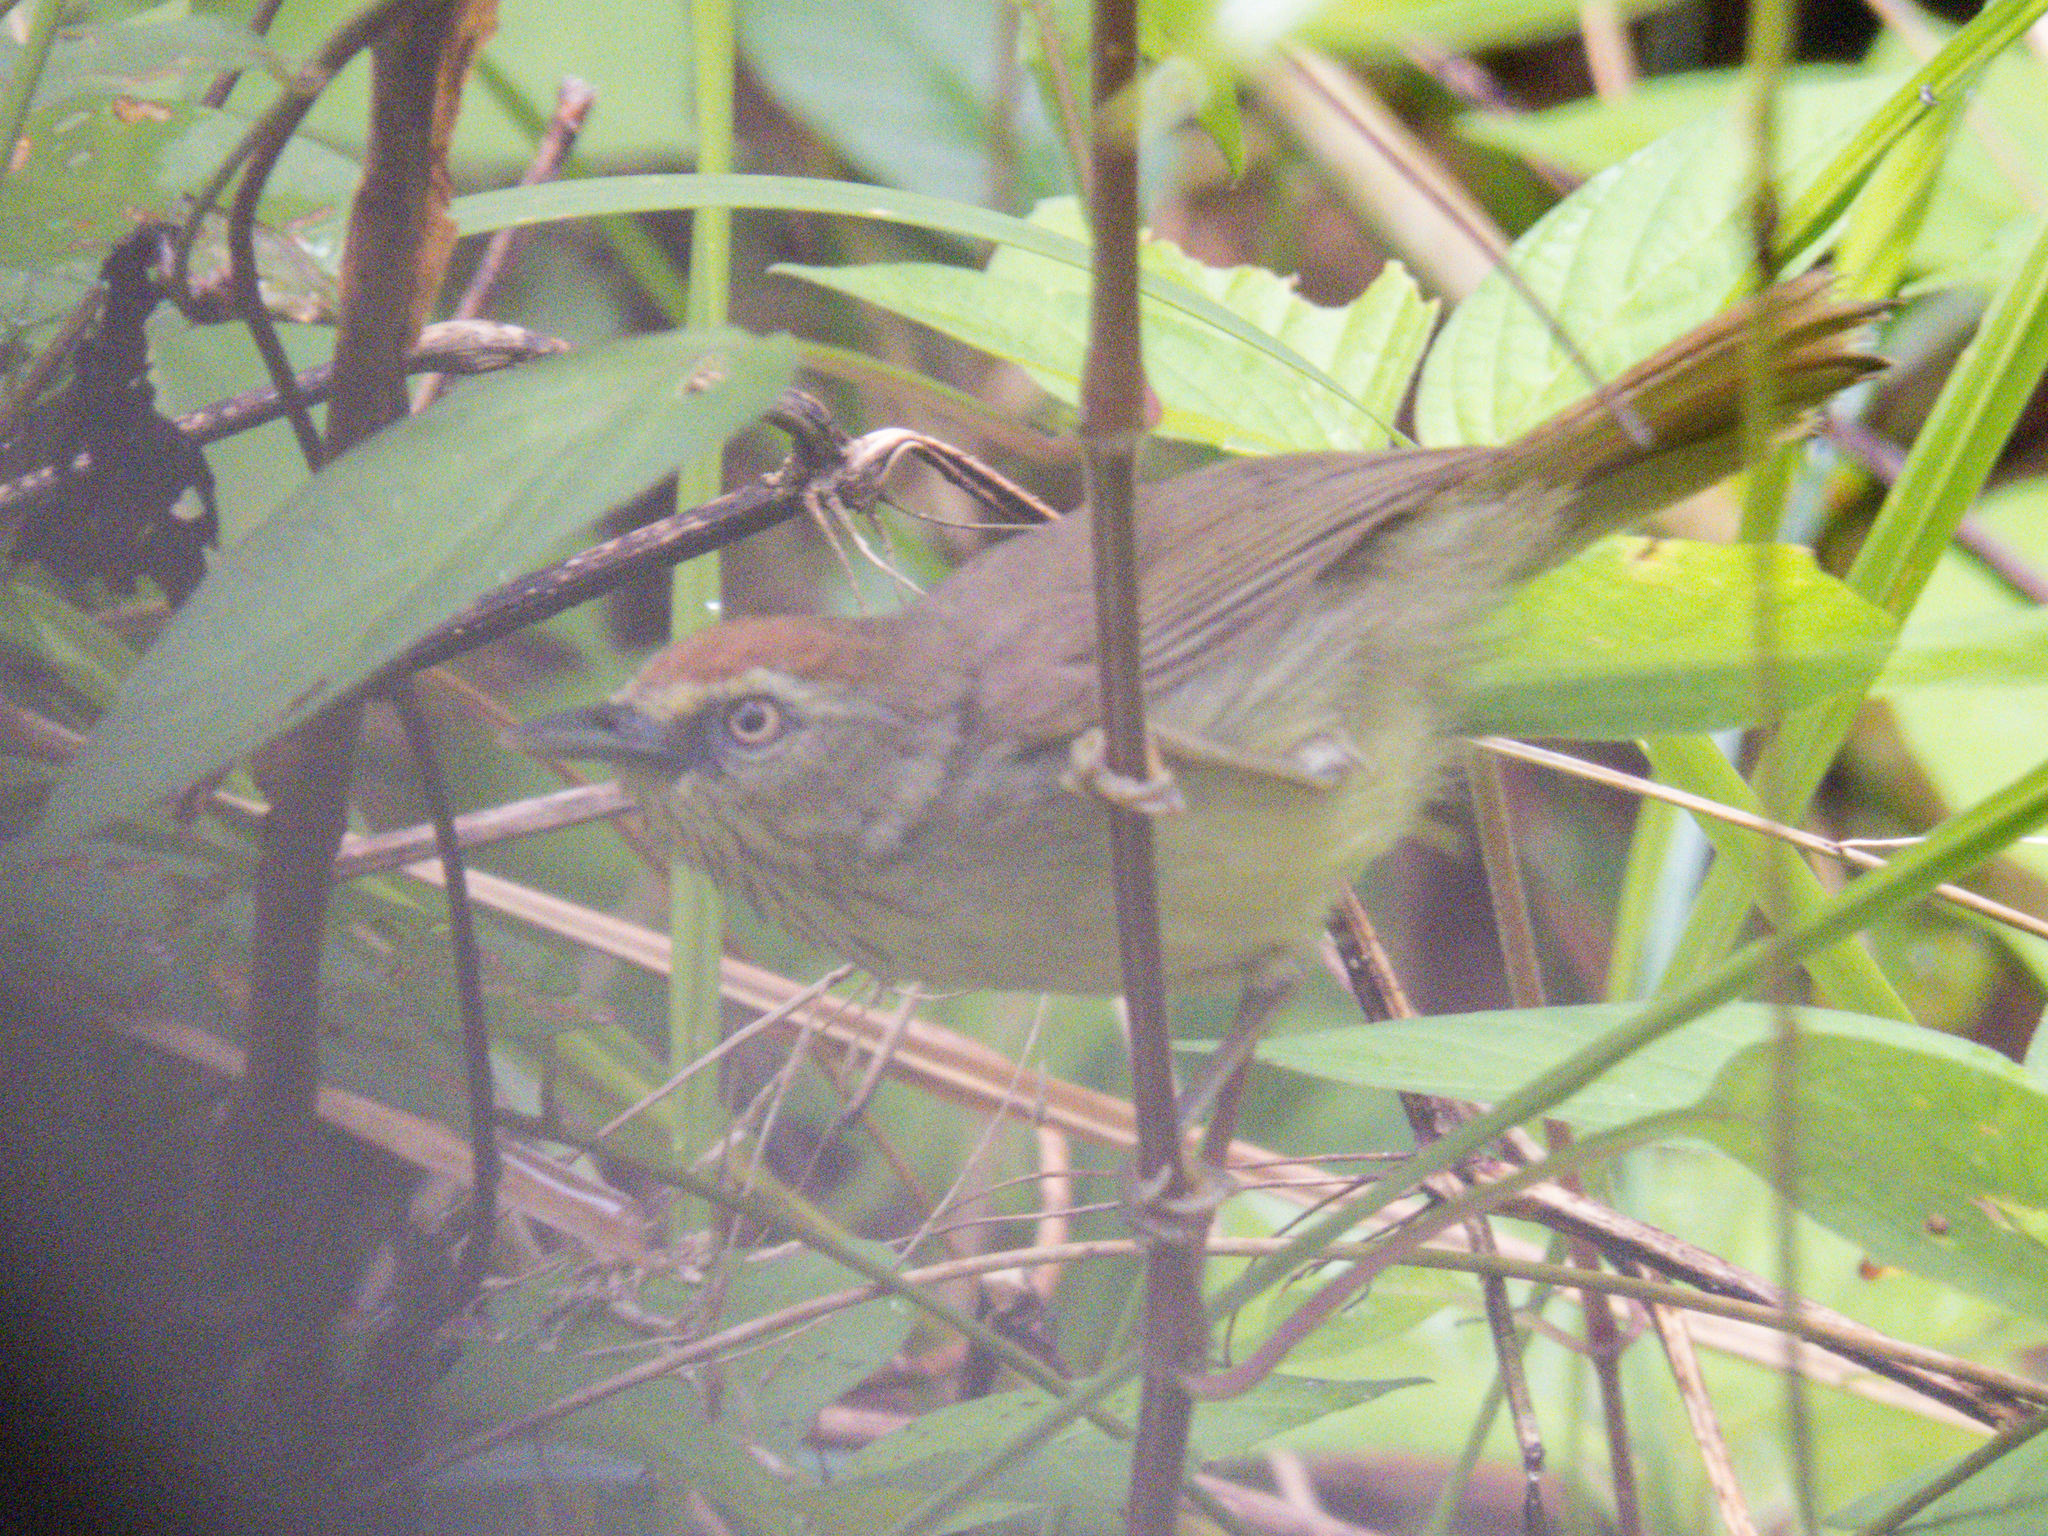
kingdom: Animalia
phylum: Chordata
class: Aves
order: Passeriformes
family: Timaliidae
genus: Macronus
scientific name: Macronus gularis
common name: Striped tit-babbler
